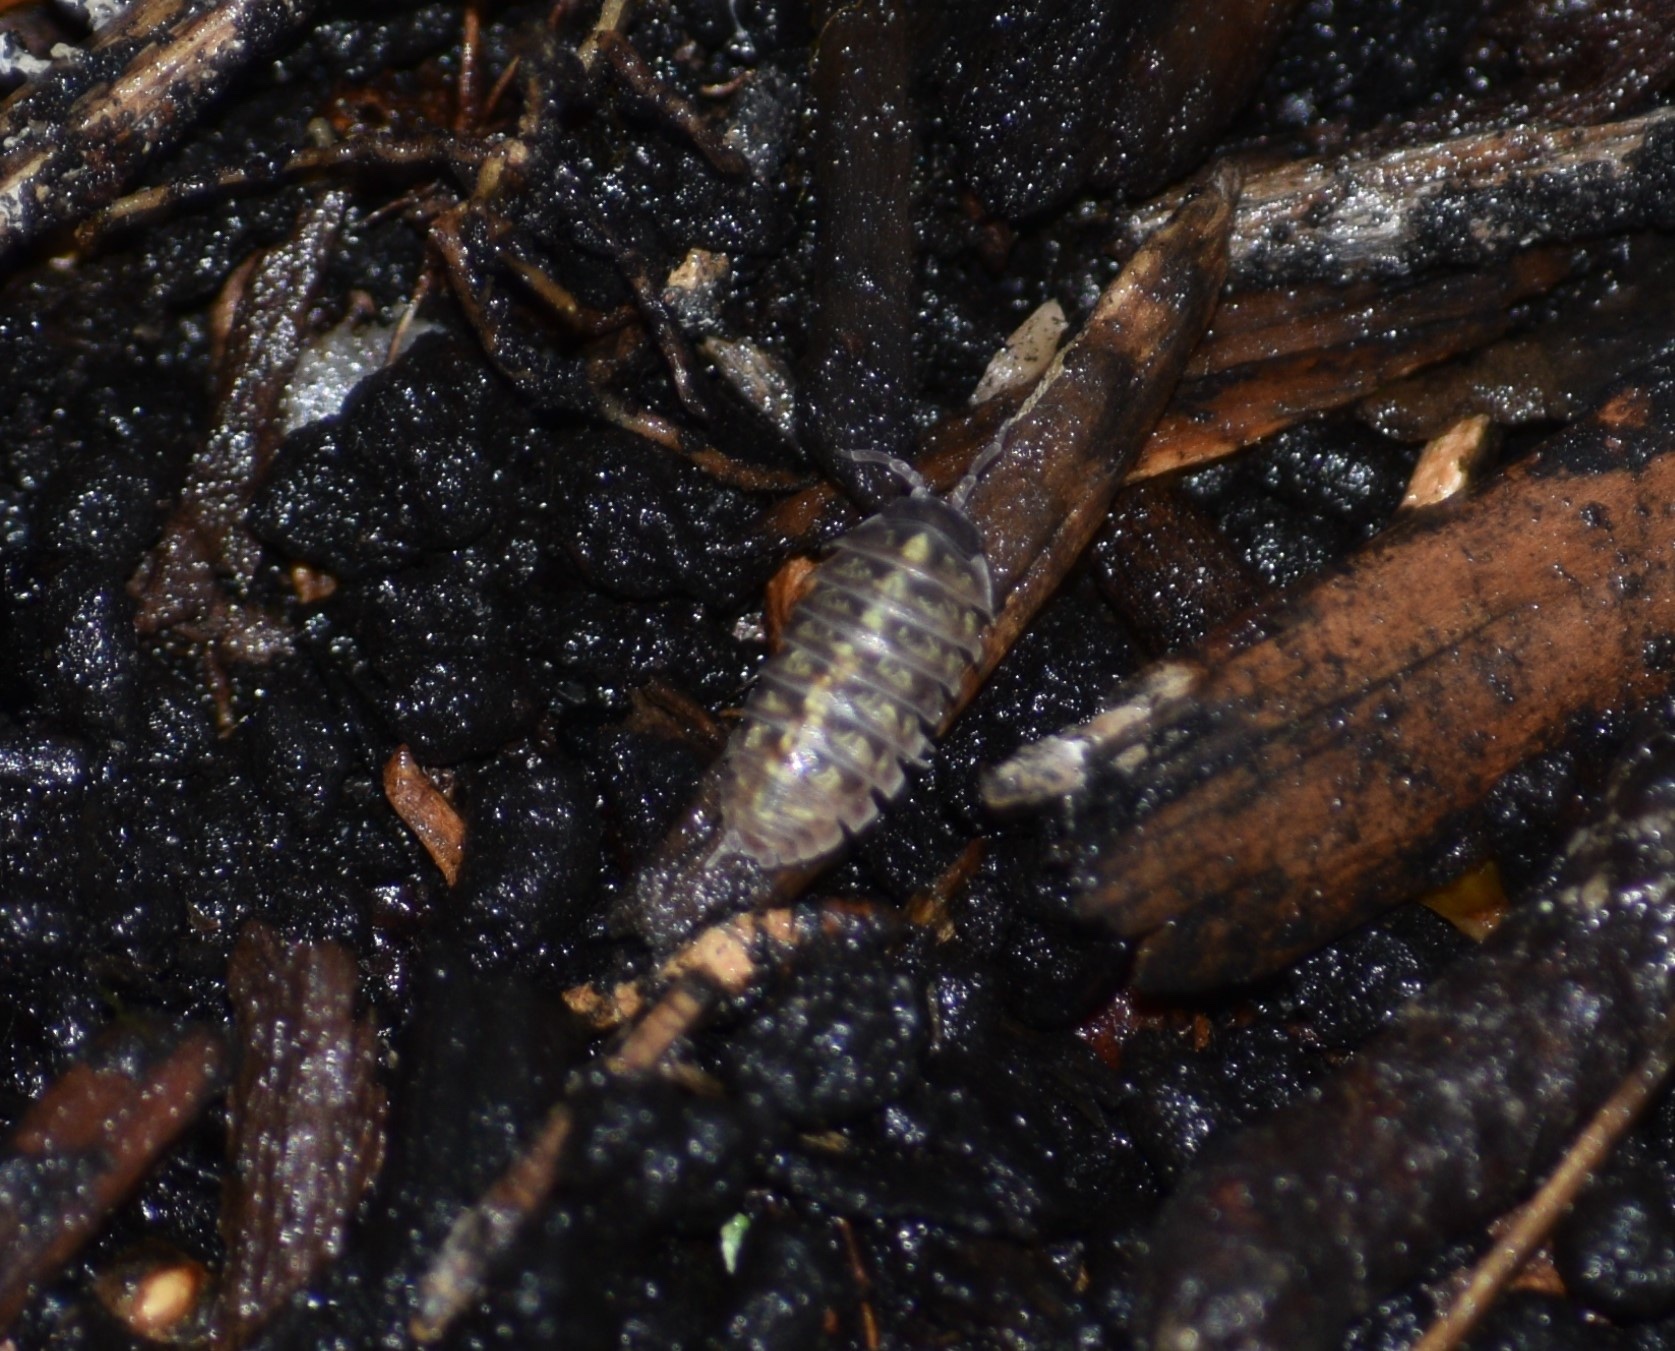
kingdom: Animalia
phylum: Arthropoda
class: Malacostraca
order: Isopoda
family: Armadillidiidae
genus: Armadillidium
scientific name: Armadillidium vulgare
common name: Common pill woodlouse
